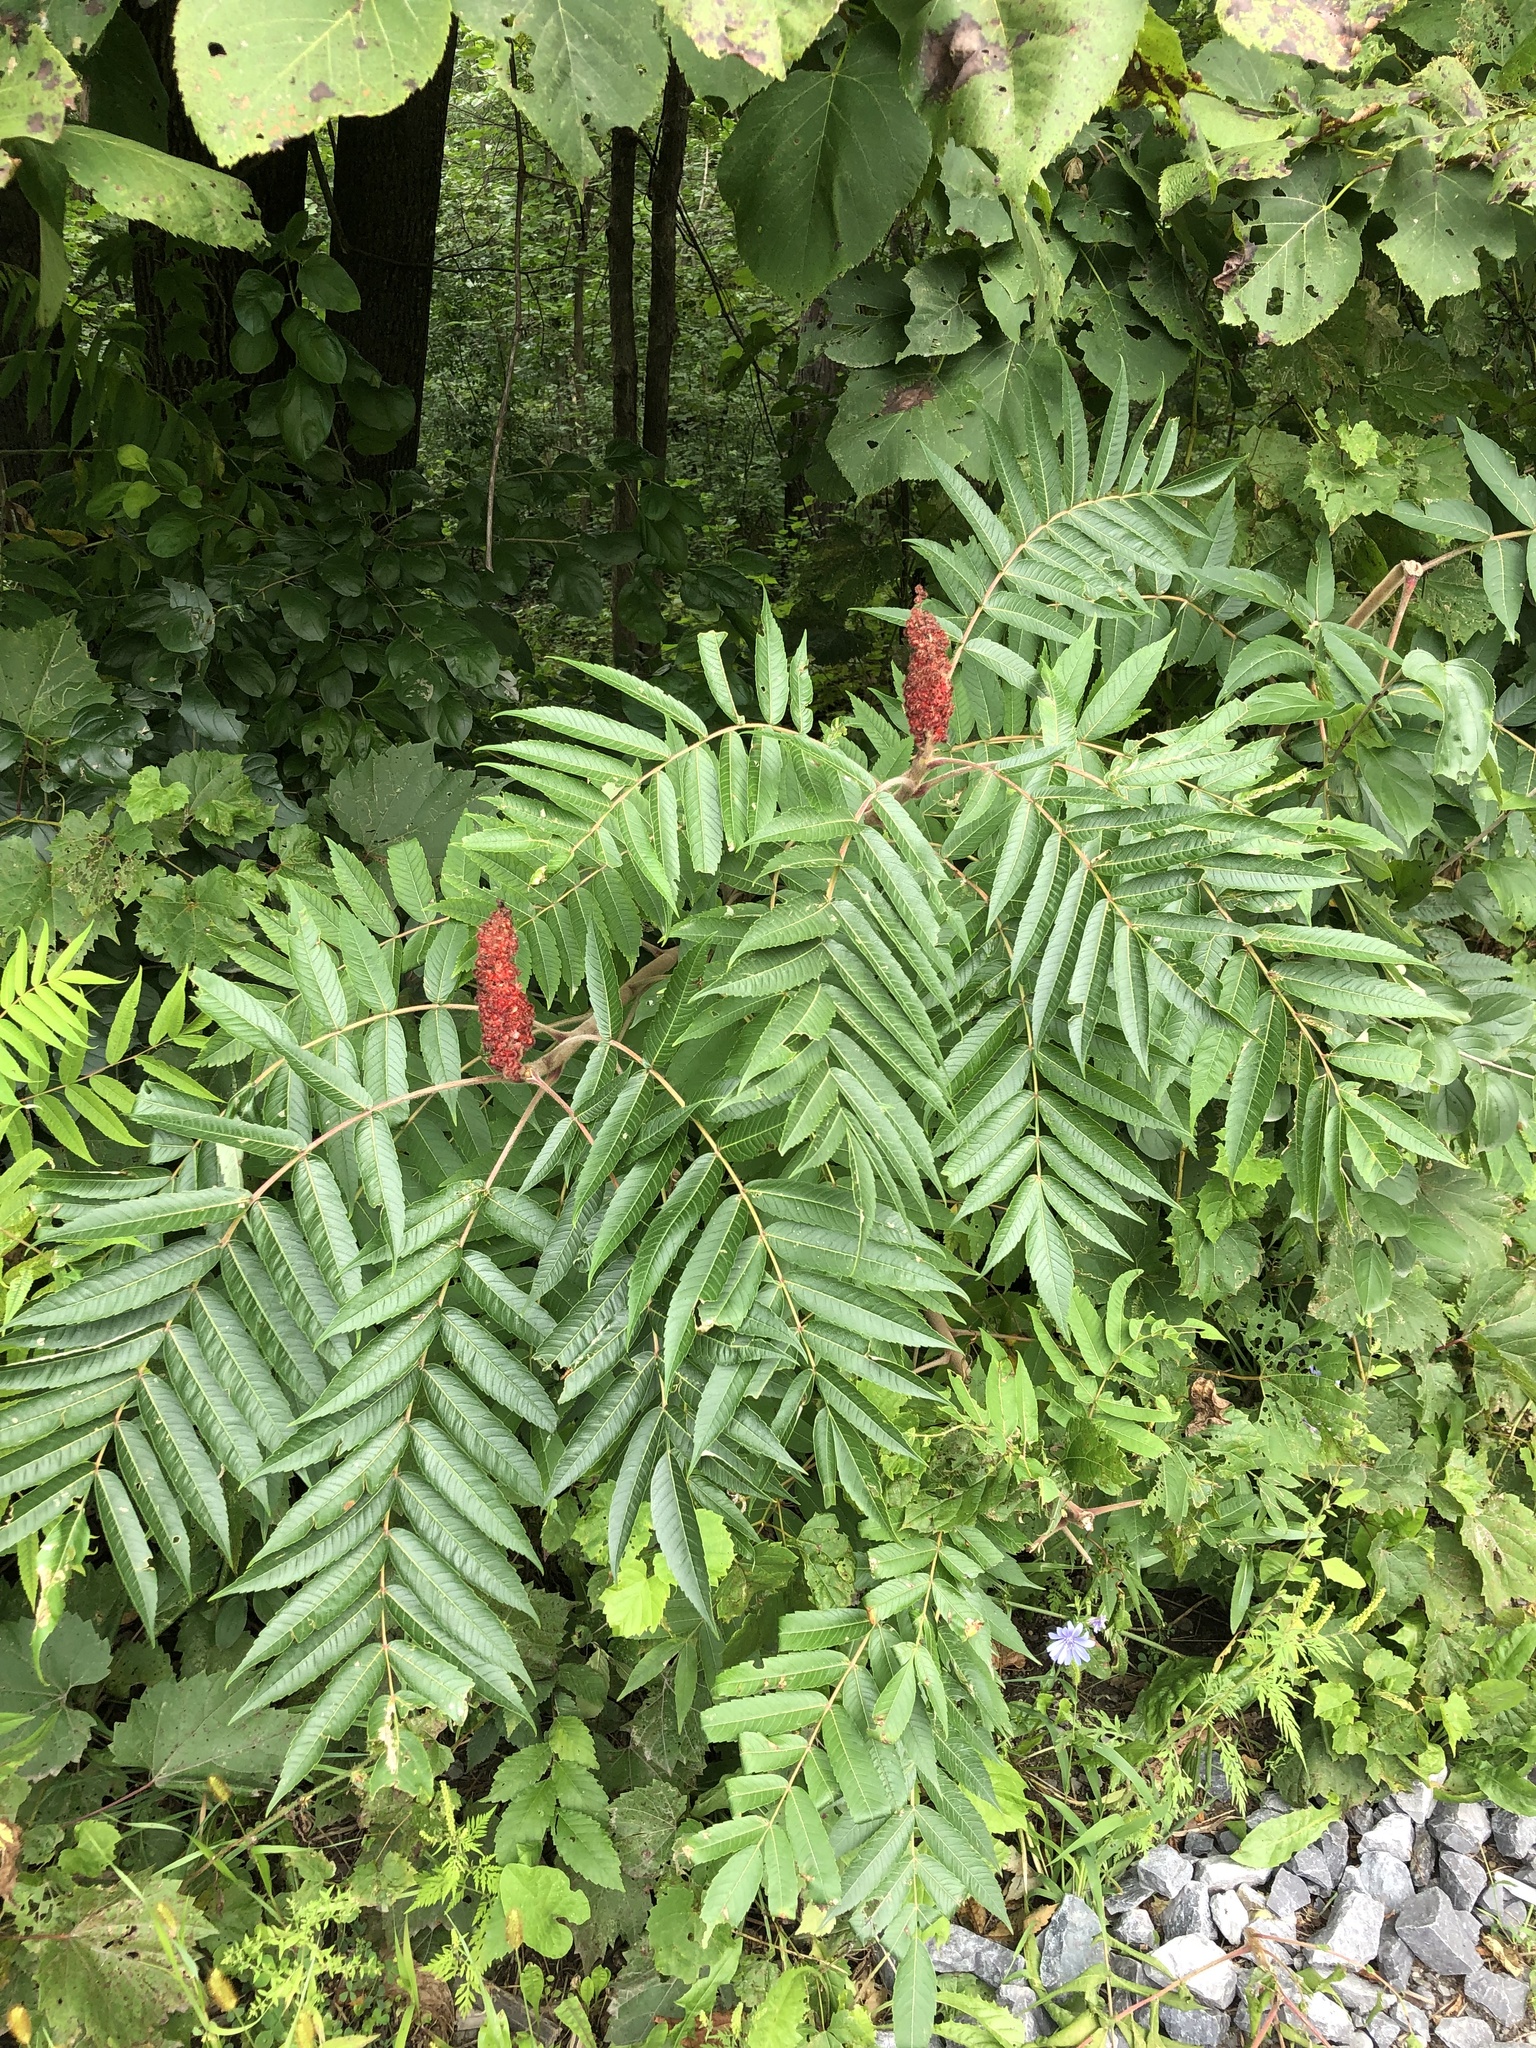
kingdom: Plantae
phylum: Tracheophyta
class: Magnoliopsida
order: Sapindales
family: Anacardiaceae
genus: Rhus
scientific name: Rhus typhina
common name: Staghorn sumac
